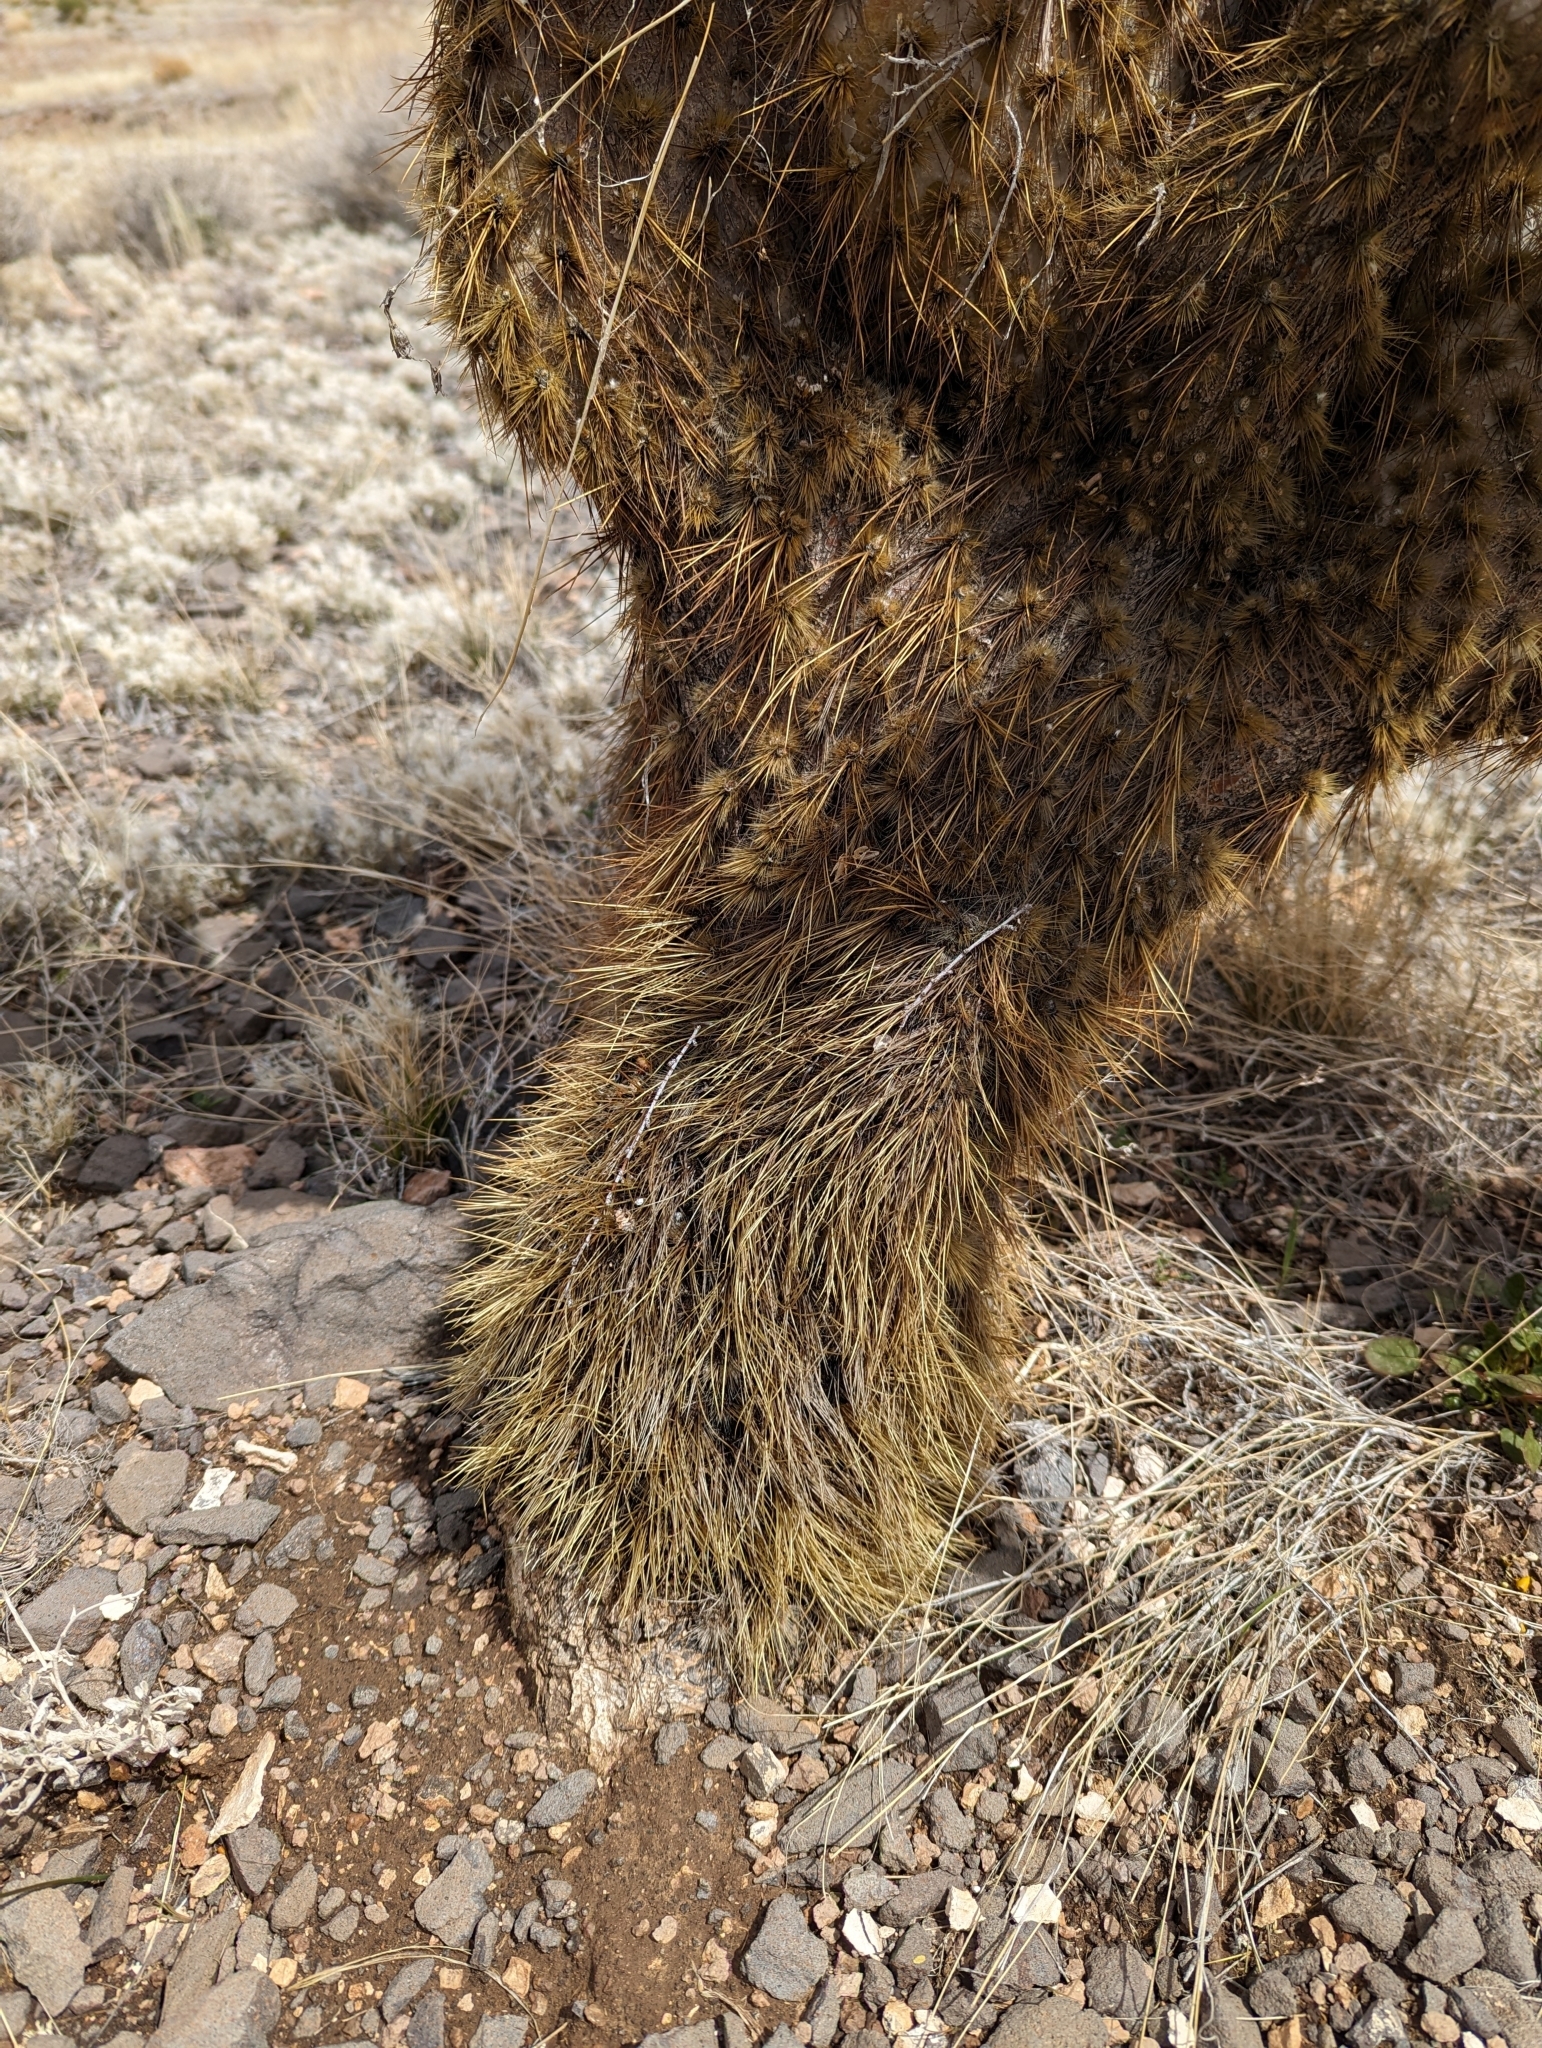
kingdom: Plantae
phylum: Tracheophyta
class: Magnoliopsida
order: Caryophyllales
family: Cactaceae
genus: Opuntia
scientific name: Opuntia chlorotica
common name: Dollar-joint prickly-pear
